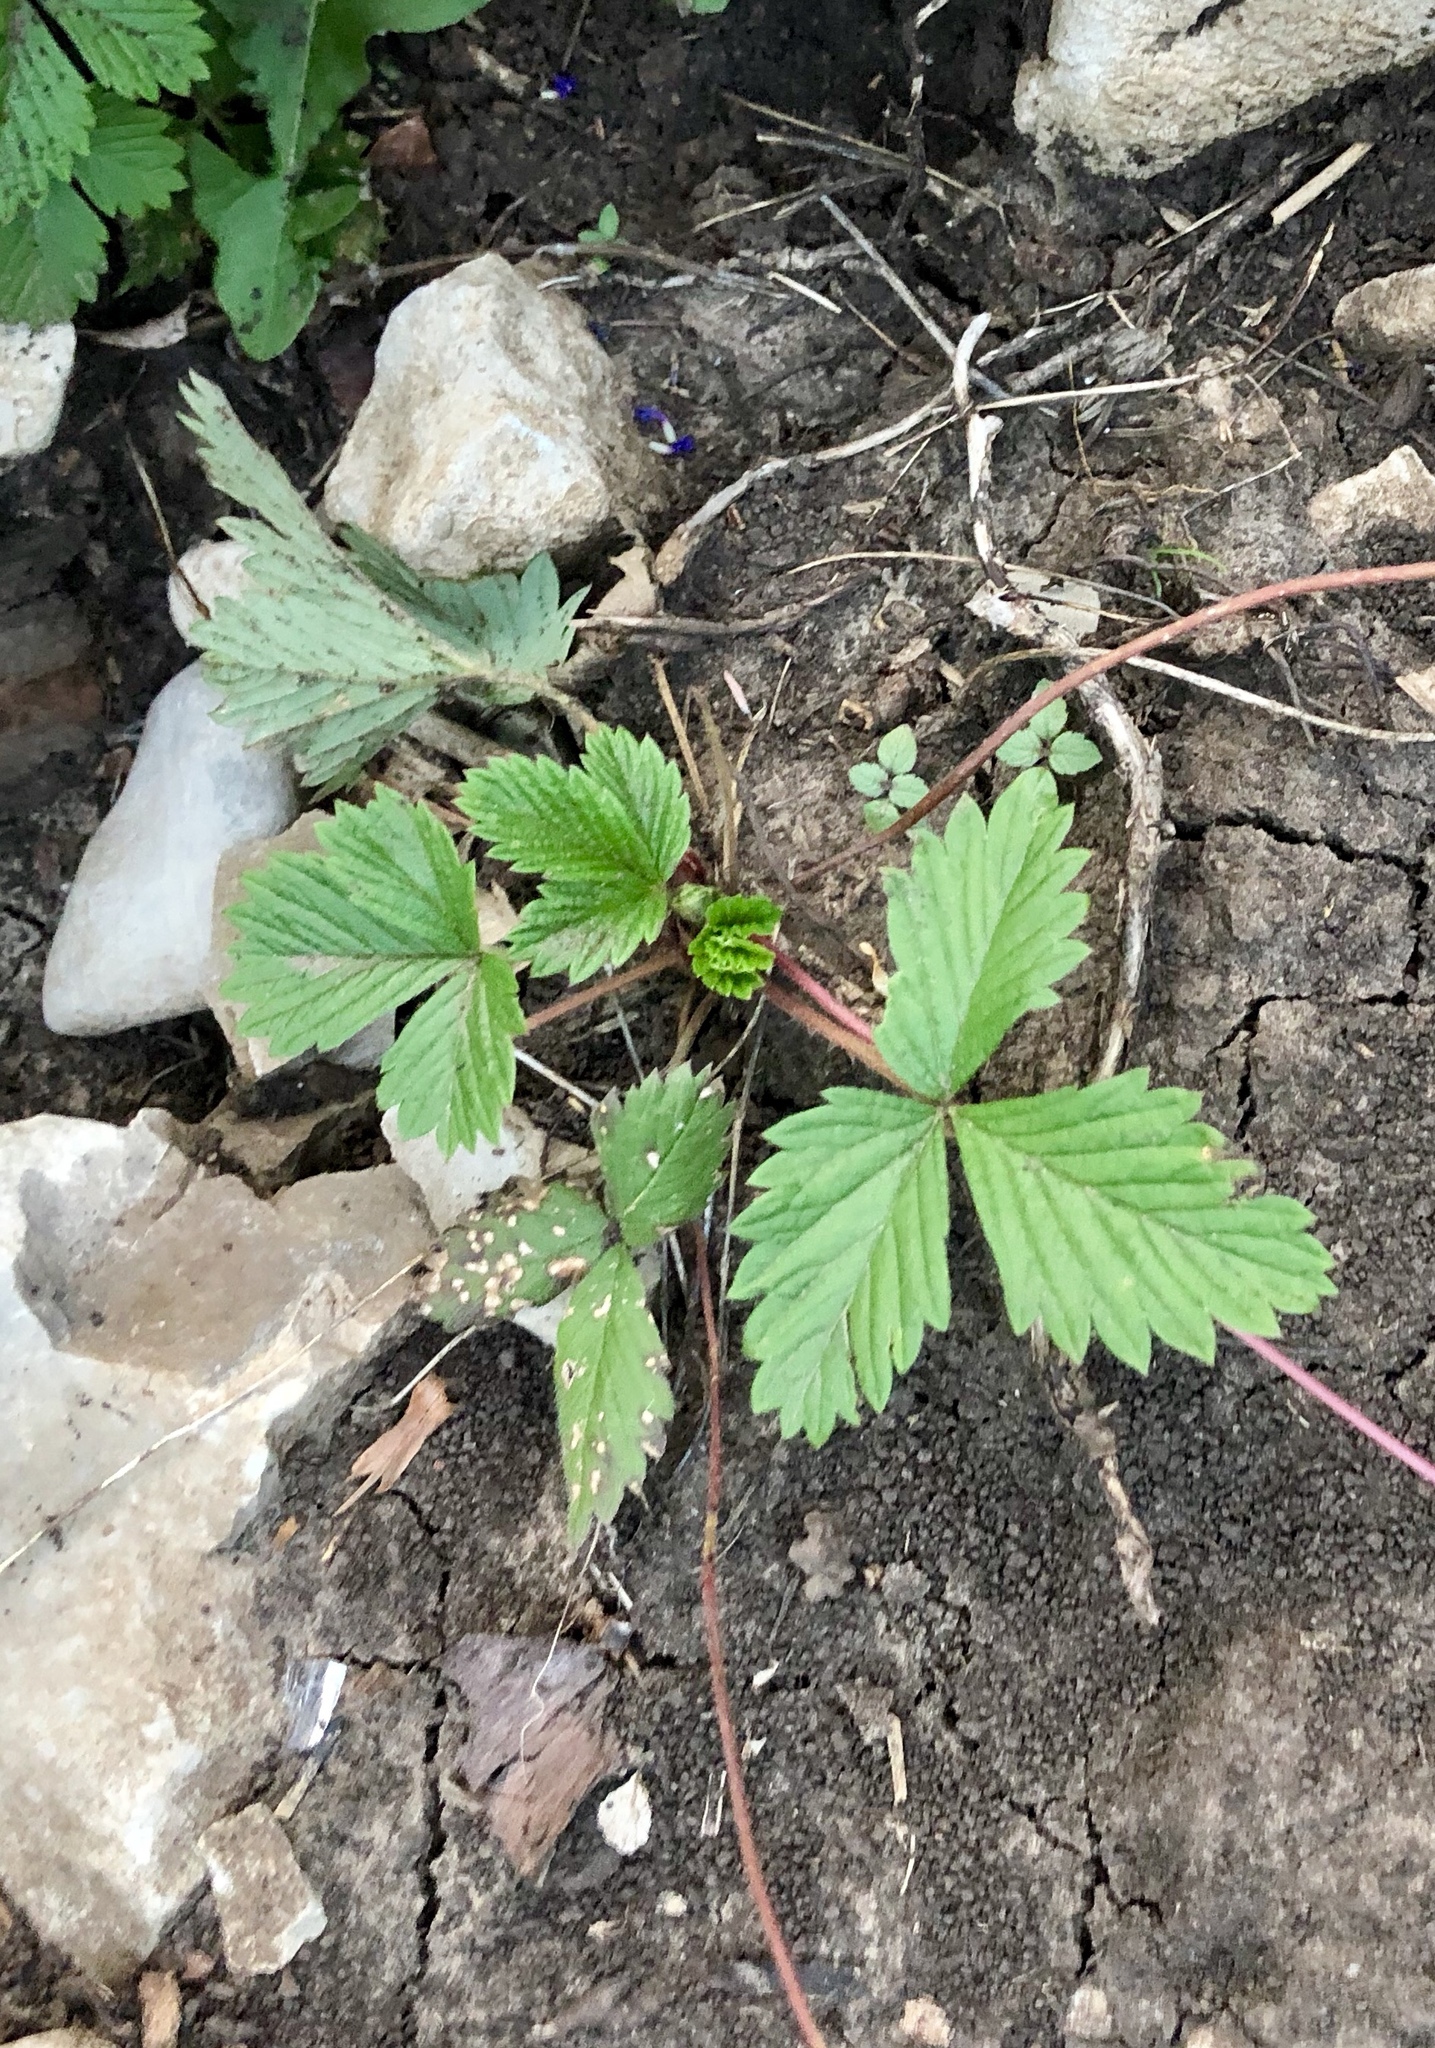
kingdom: Plantae
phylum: Tracheophyta
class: Magnoliopsida
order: Rosales
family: Rosaceae
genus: Fragaria
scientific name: Fragaria vesca
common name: Wild strawberry
